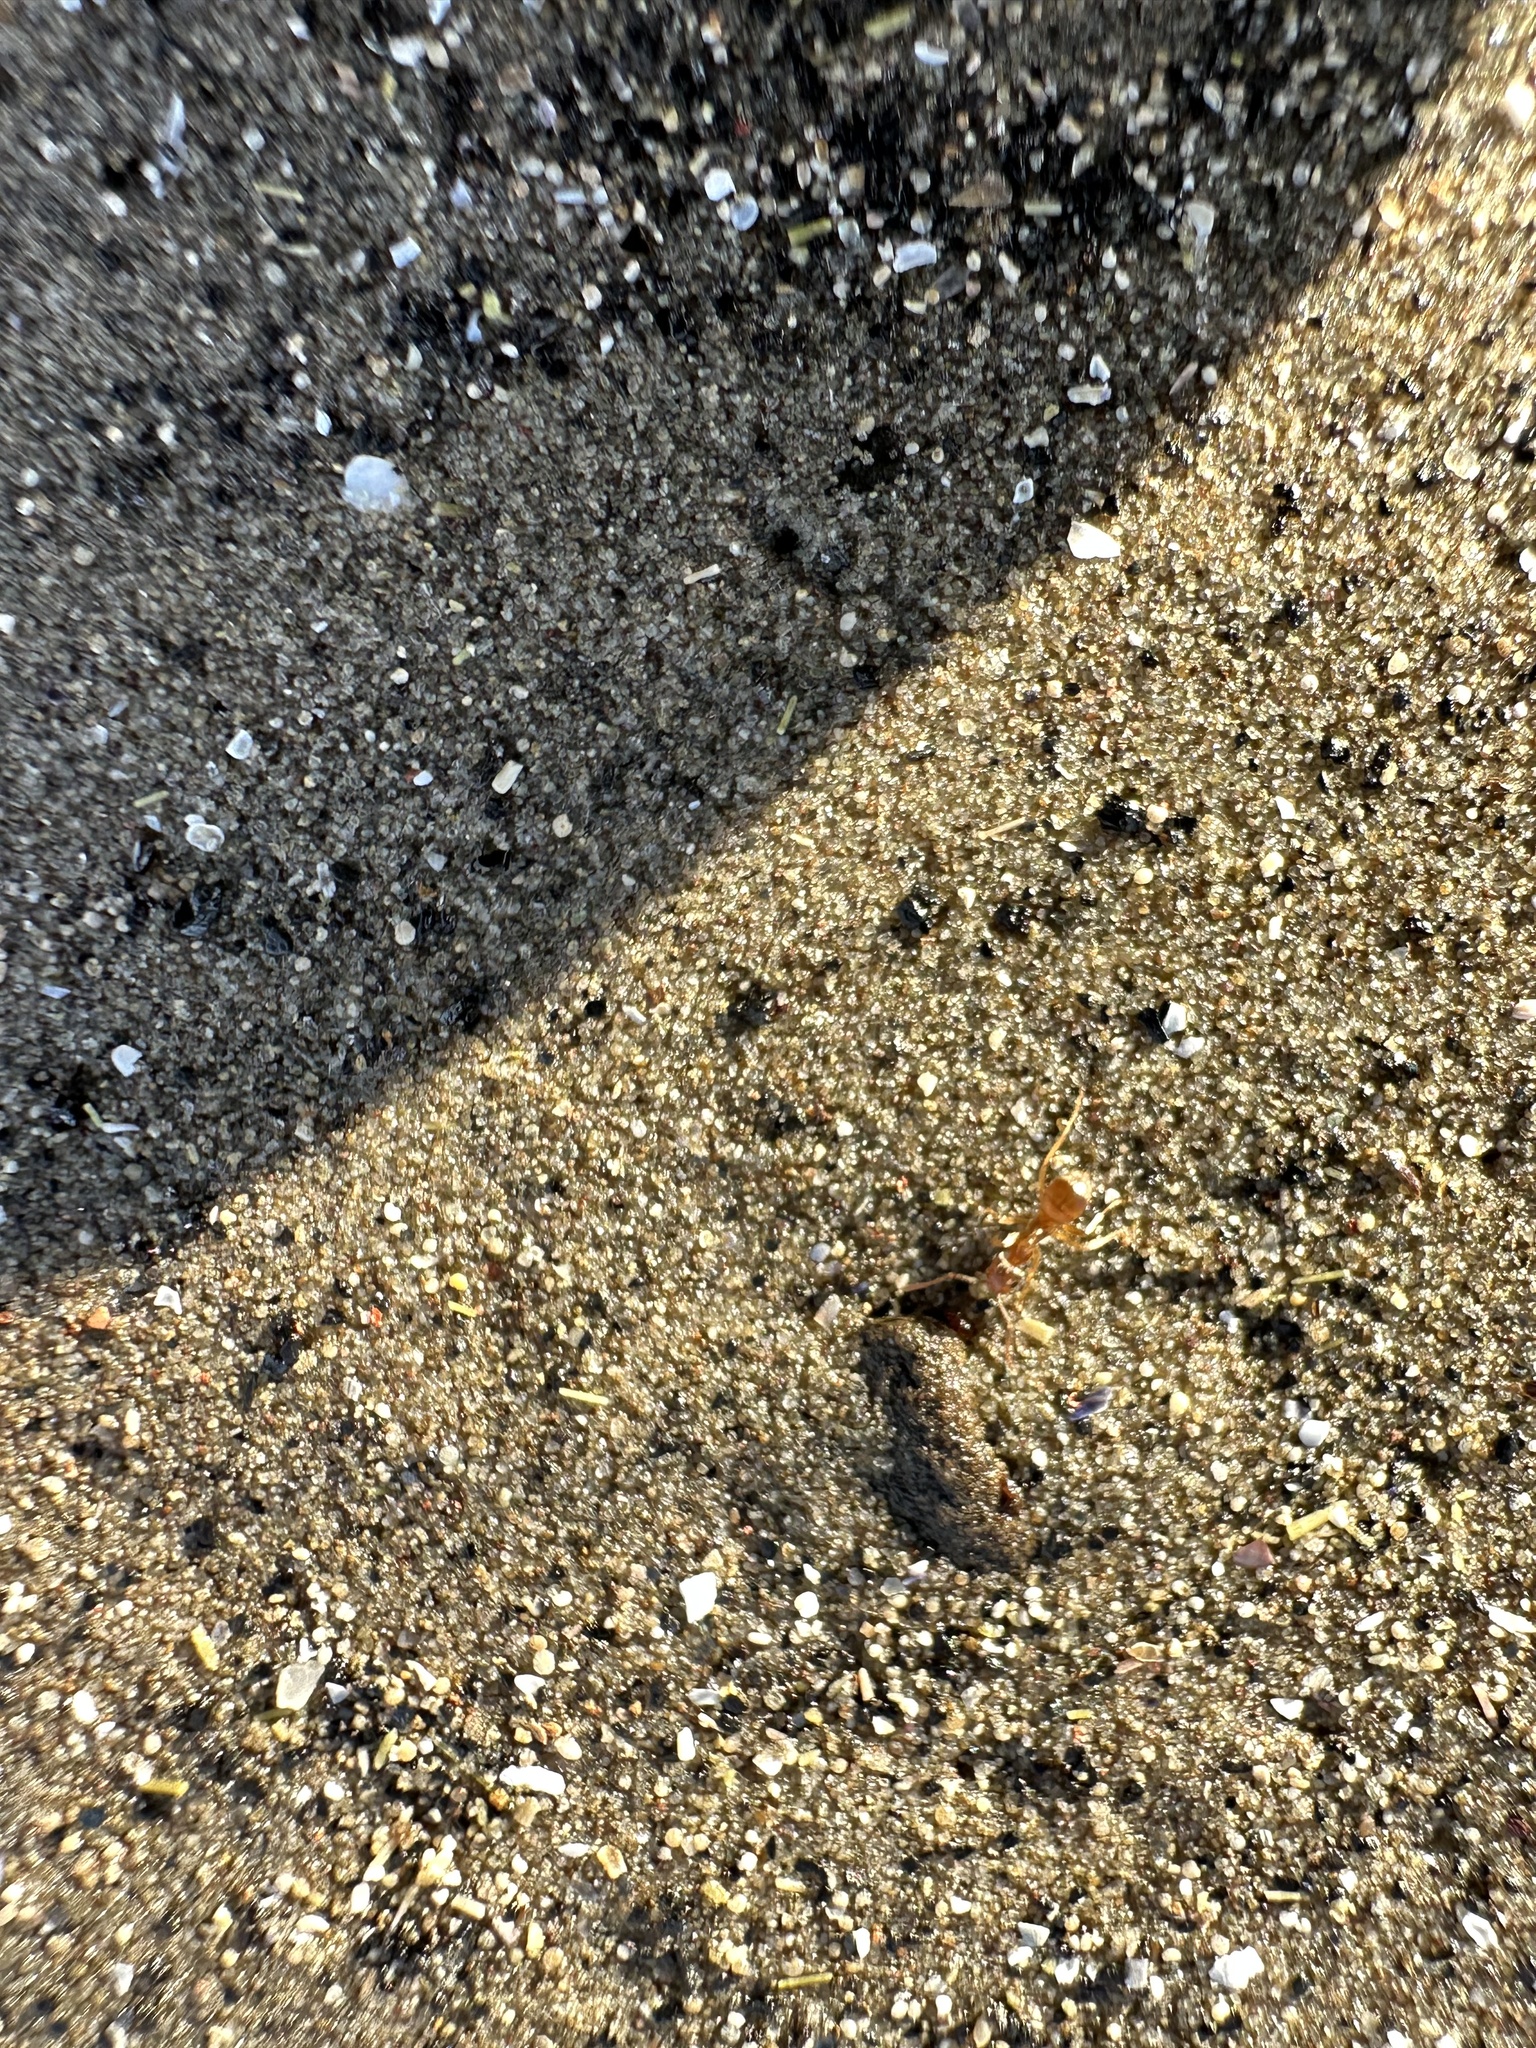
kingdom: Animalia
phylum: Arthropoda
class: Insecta
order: Hymenoptera
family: Formicidae
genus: Lasius
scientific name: Lasius neoniger
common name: Turfgrass ant
